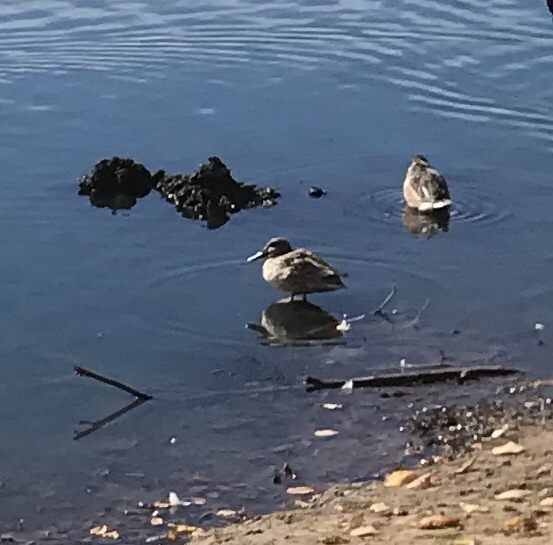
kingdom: Animalia
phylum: Chordata
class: Aves
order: Anseriformes
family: Anatidae
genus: Spatula
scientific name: Spatula clypeata
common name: Northern shoveler
